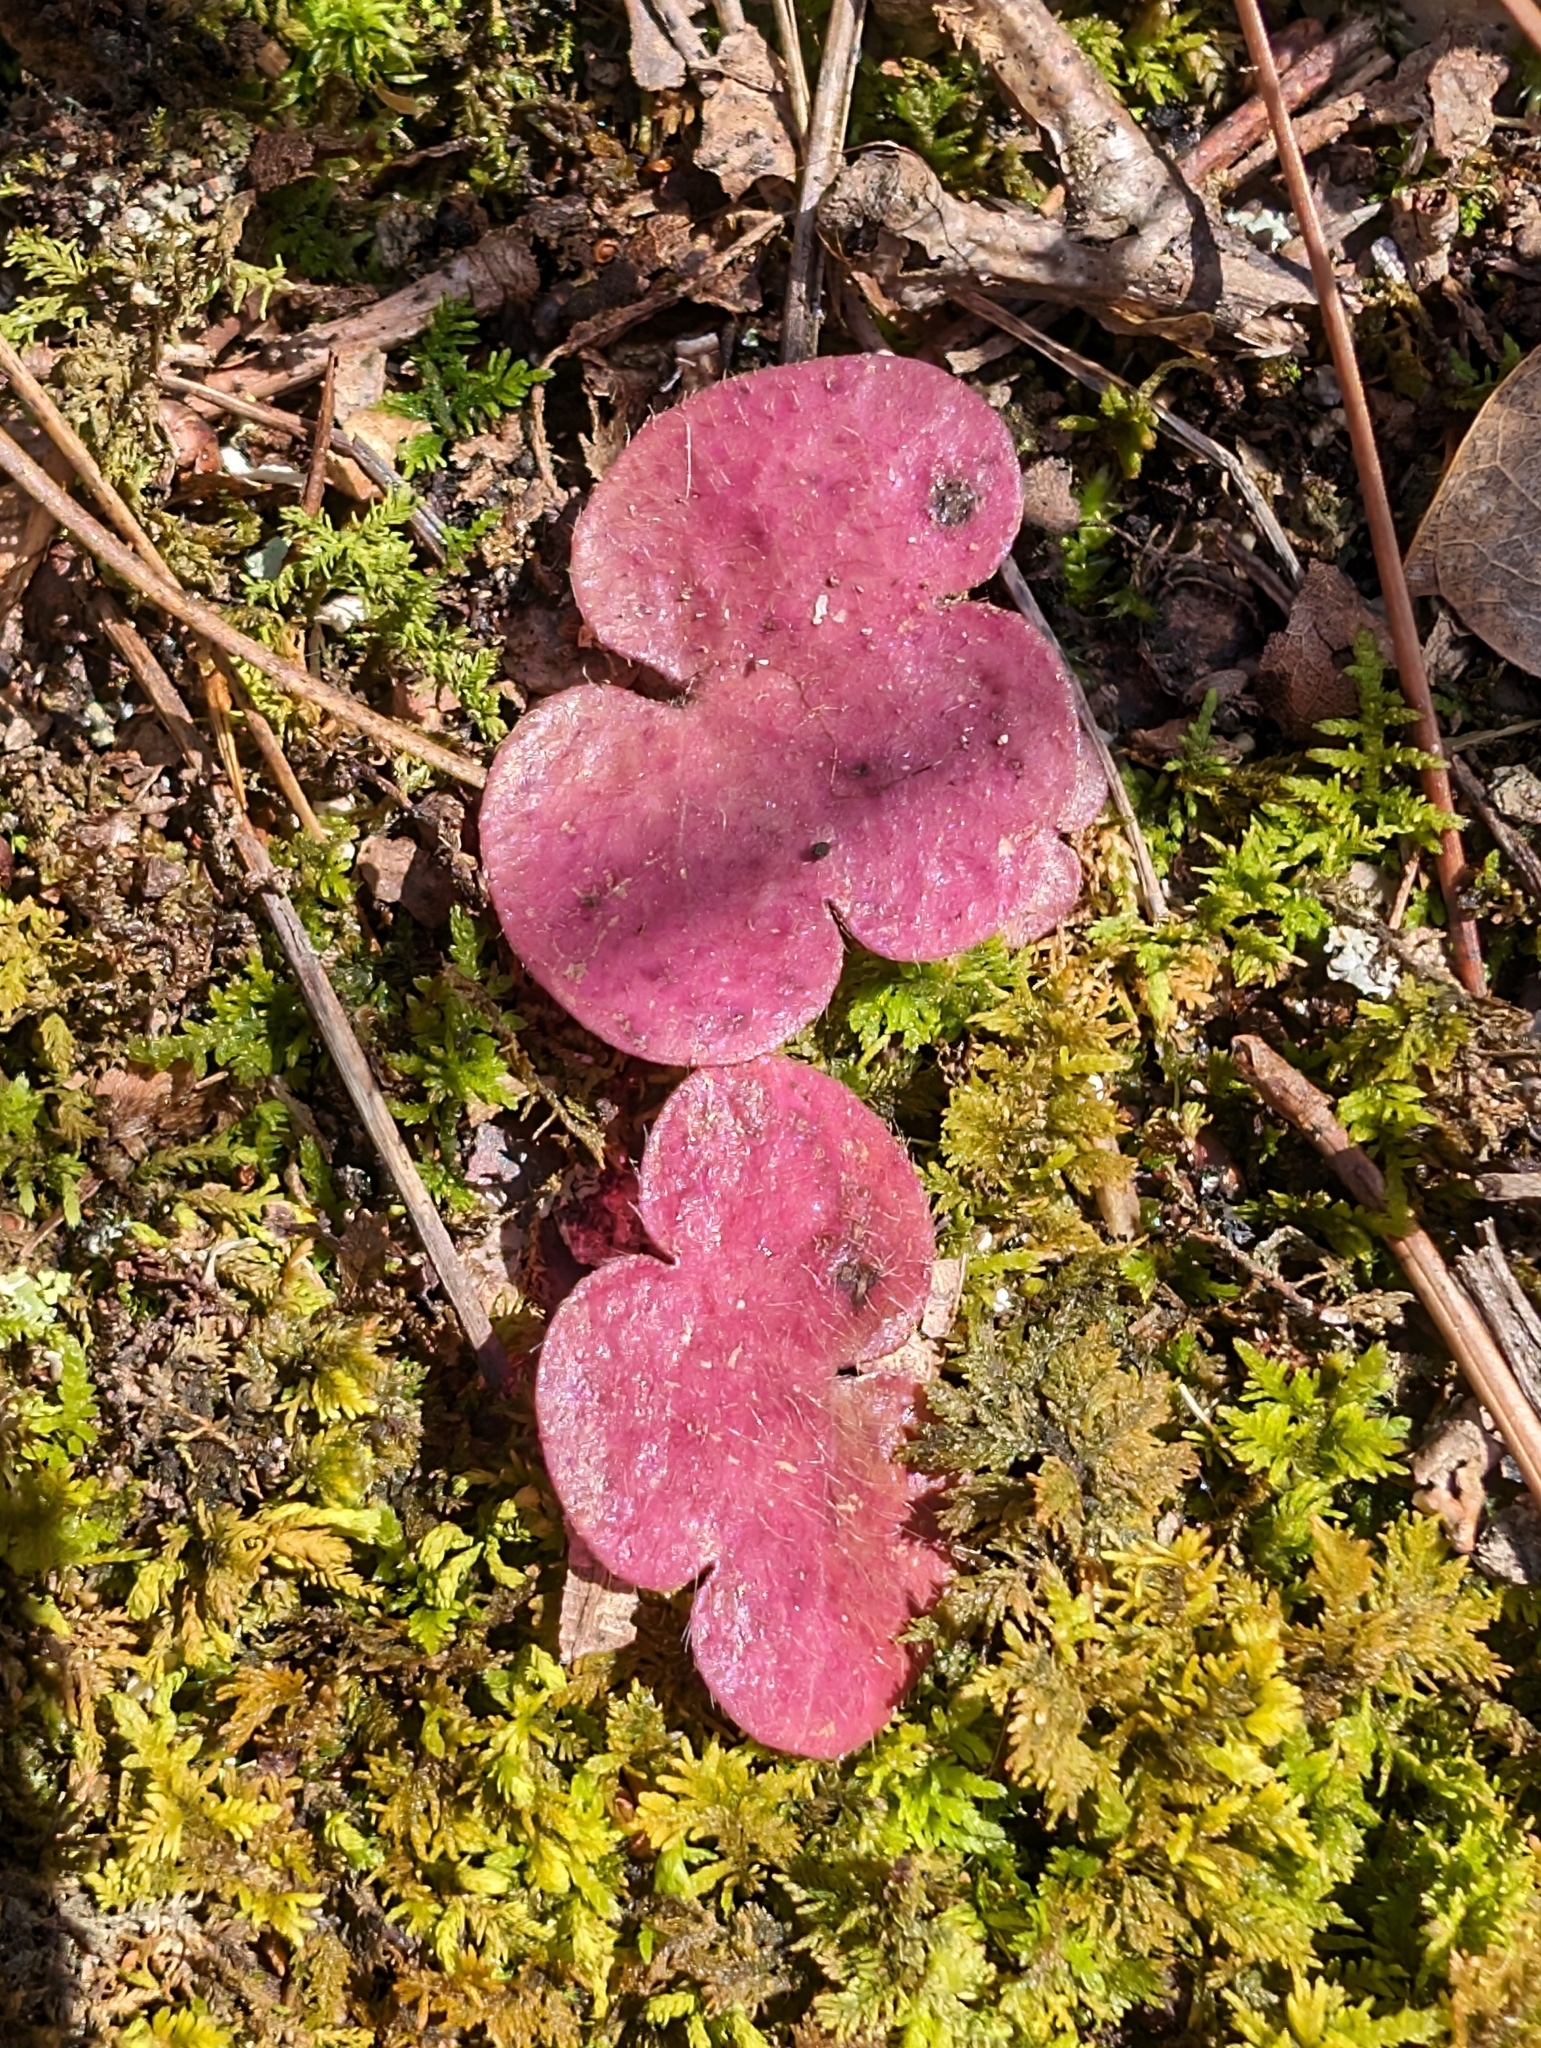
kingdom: Plantae
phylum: Tracheophyta
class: Magnoliopsida
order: Ranunculales
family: Ranunculaceae
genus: Hepatica
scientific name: Hepatica americana
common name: American hepatica
